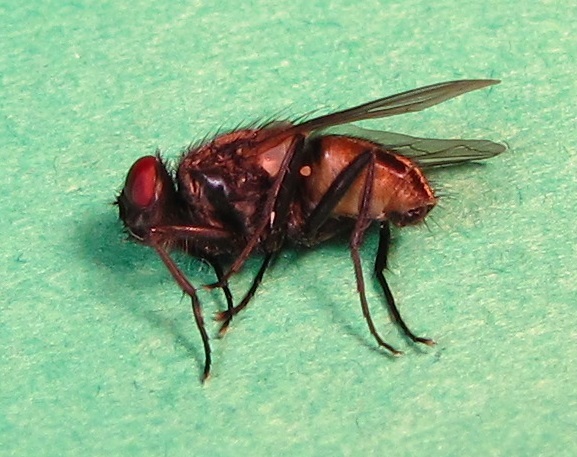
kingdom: Animalia
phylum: Arthropoda
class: Insecta
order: Diptera
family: Muscidae
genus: Musca
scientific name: Musca domestica
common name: House fly
